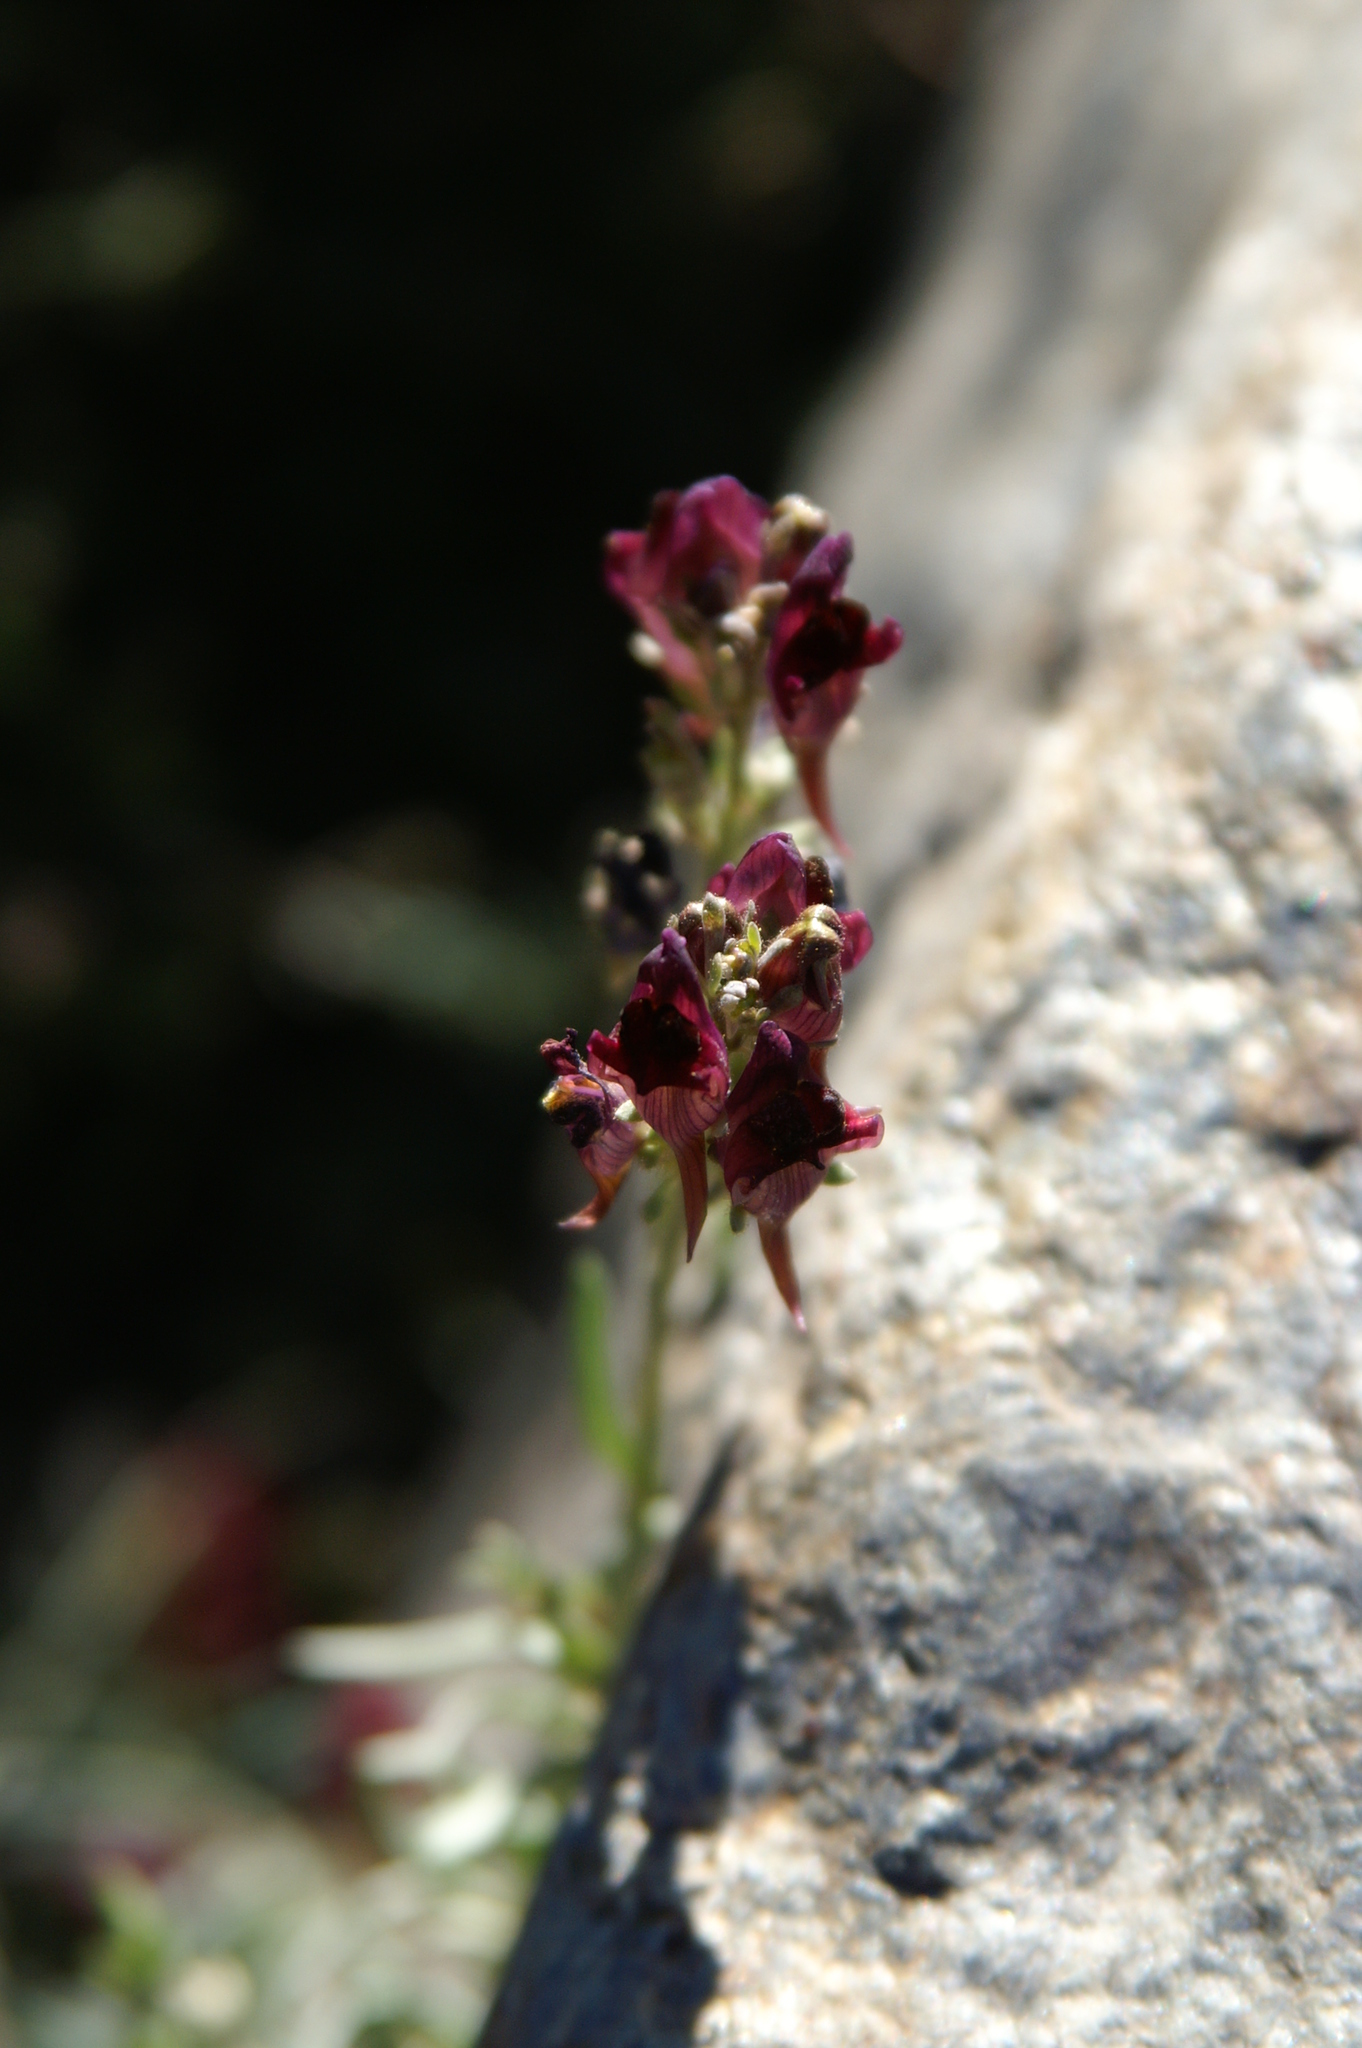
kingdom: Plantae
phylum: Tracheophyta
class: Magnoliopsida
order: Lamiales
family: Plantaginaceae
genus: Linaria
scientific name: Linaria aeruginea
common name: Roadside toadflax
